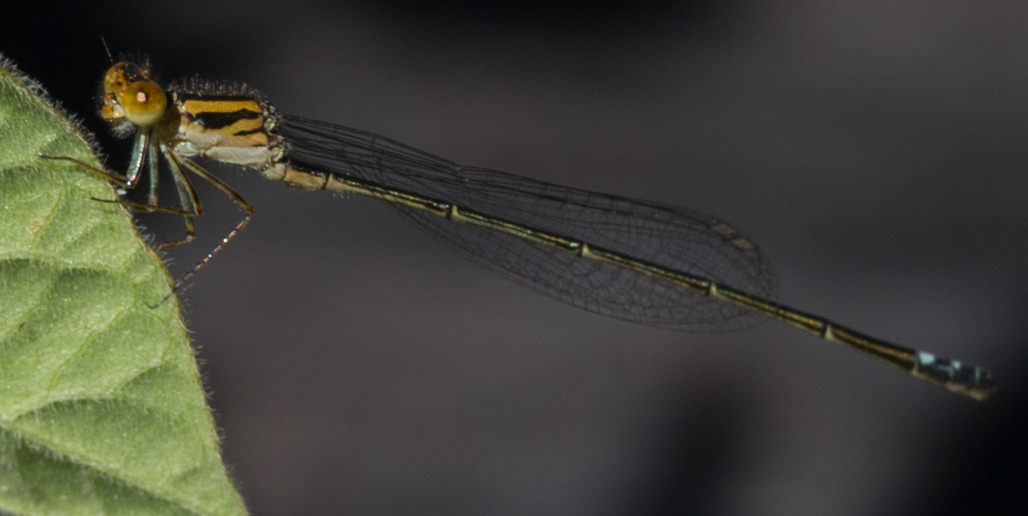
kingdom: Animalia
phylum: Arthropoda
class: Insecta
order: Odonata
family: Coenagrionidae
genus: Pseudagrion
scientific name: Pseudagrion rufostigma
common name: Dark sprite
